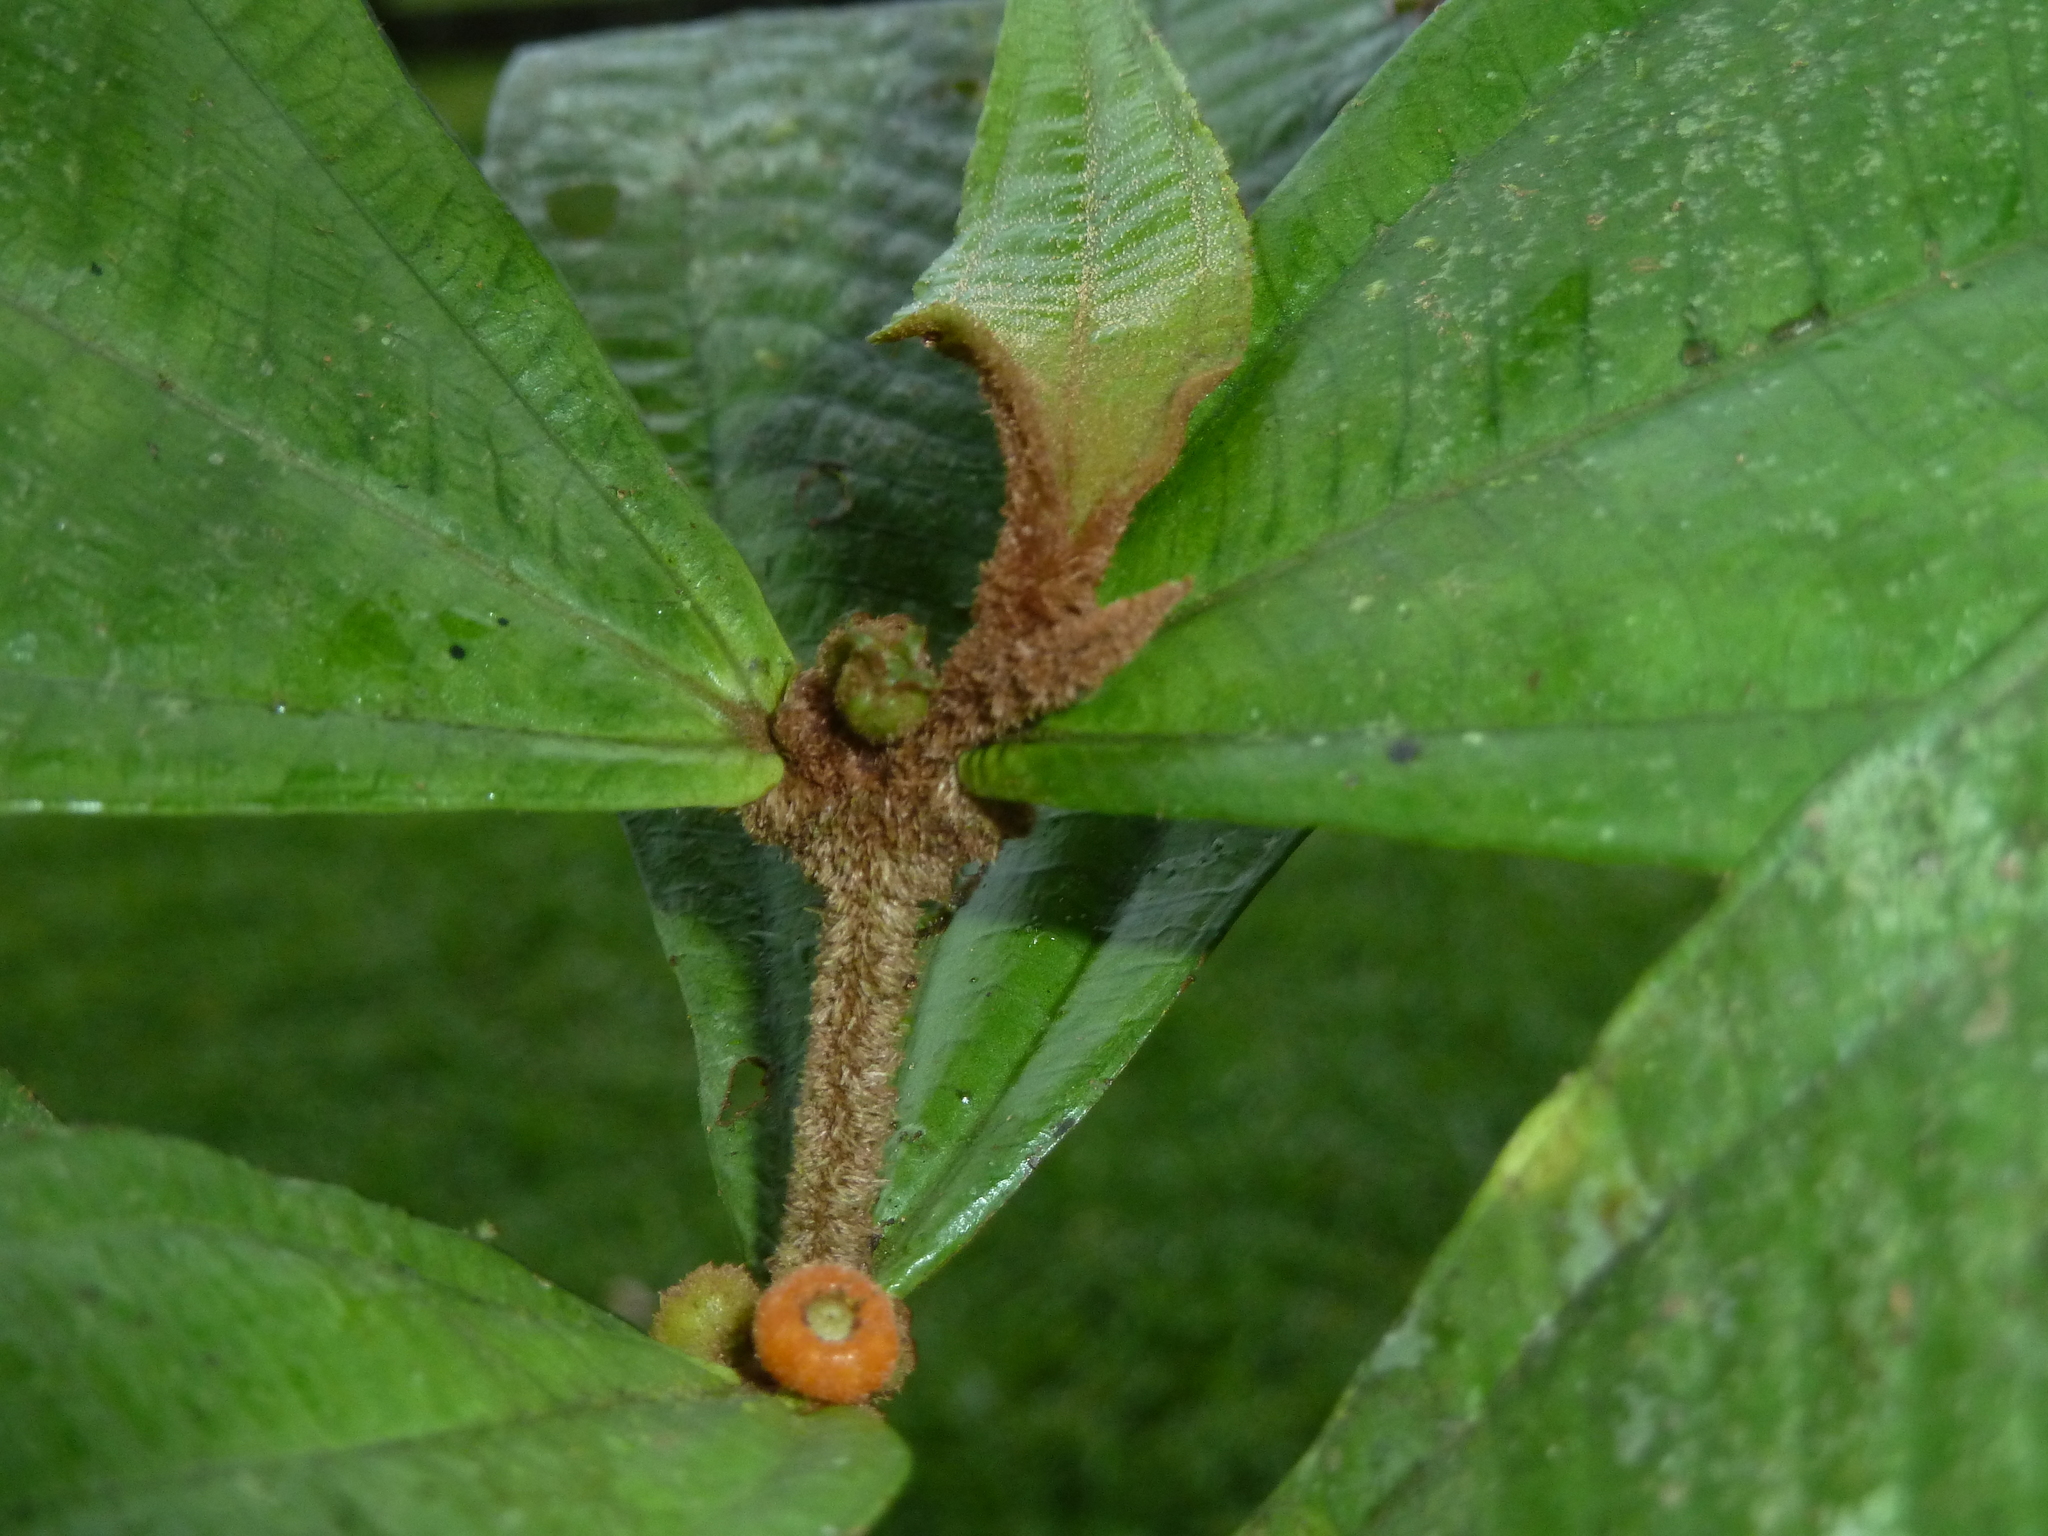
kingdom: Plantae
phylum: Tracheophyta
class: Magnoliopsida
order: Myrtales
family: Melastomataceae
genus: Miconia
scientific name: Miconia approximata
